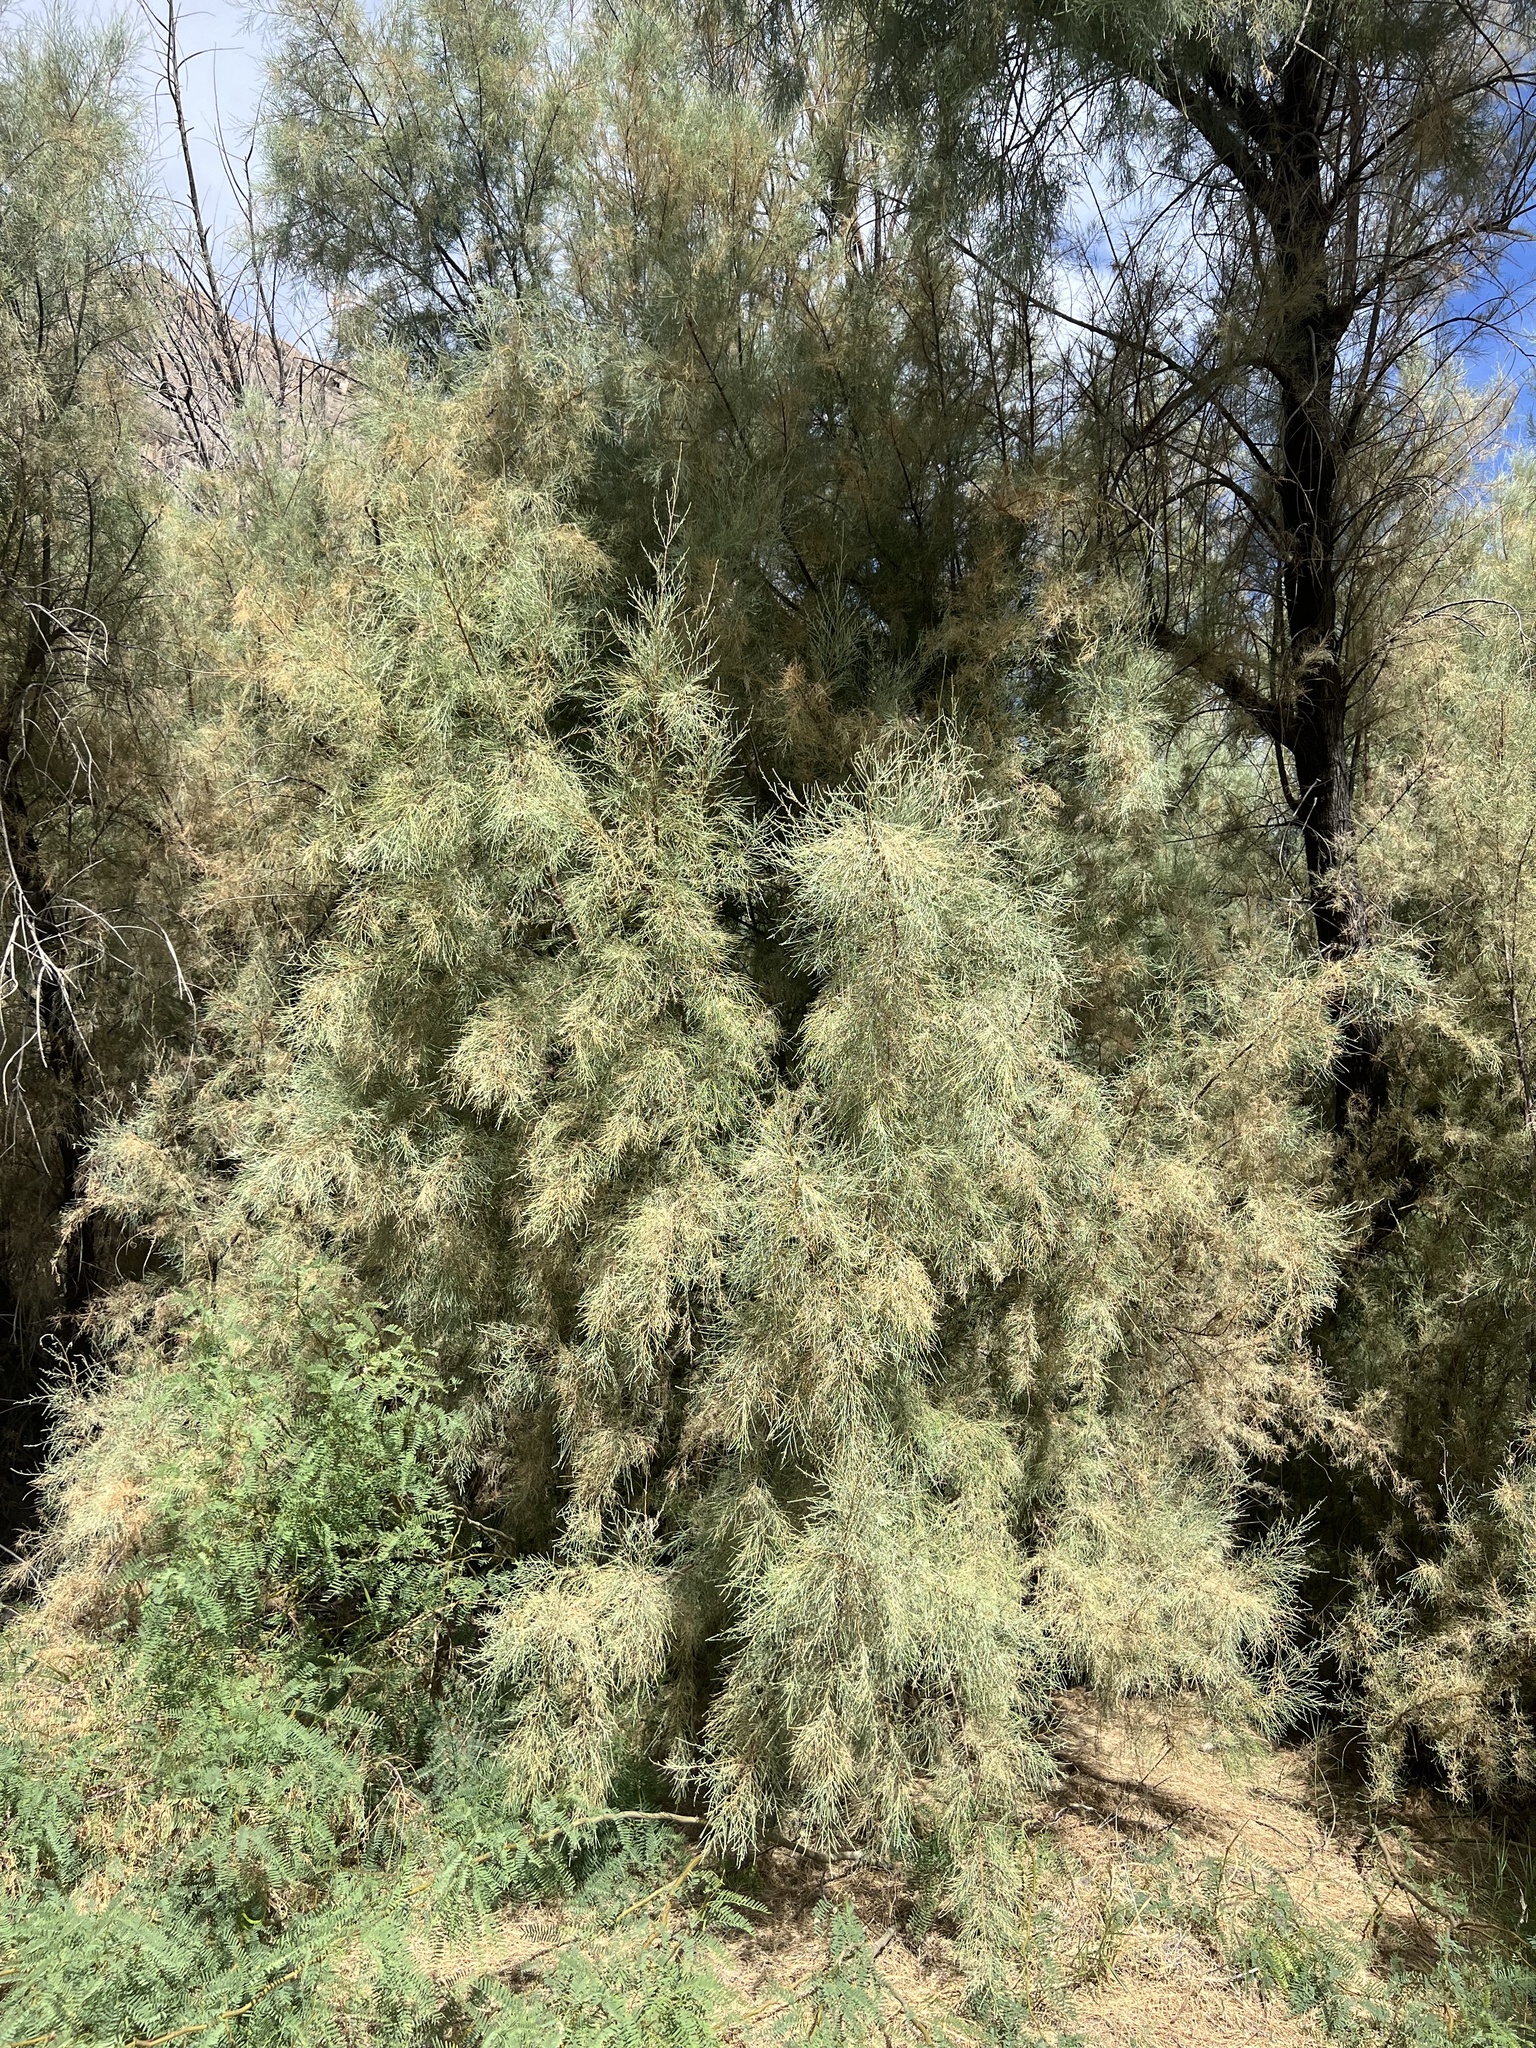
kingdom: Plantae
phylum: Tracheophyta
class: Magnoliopsida
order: Caryophyllales
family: Tamaricaceae
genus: Tamarix
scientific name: Tamarix ramosissima
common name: Pink tamarisk
